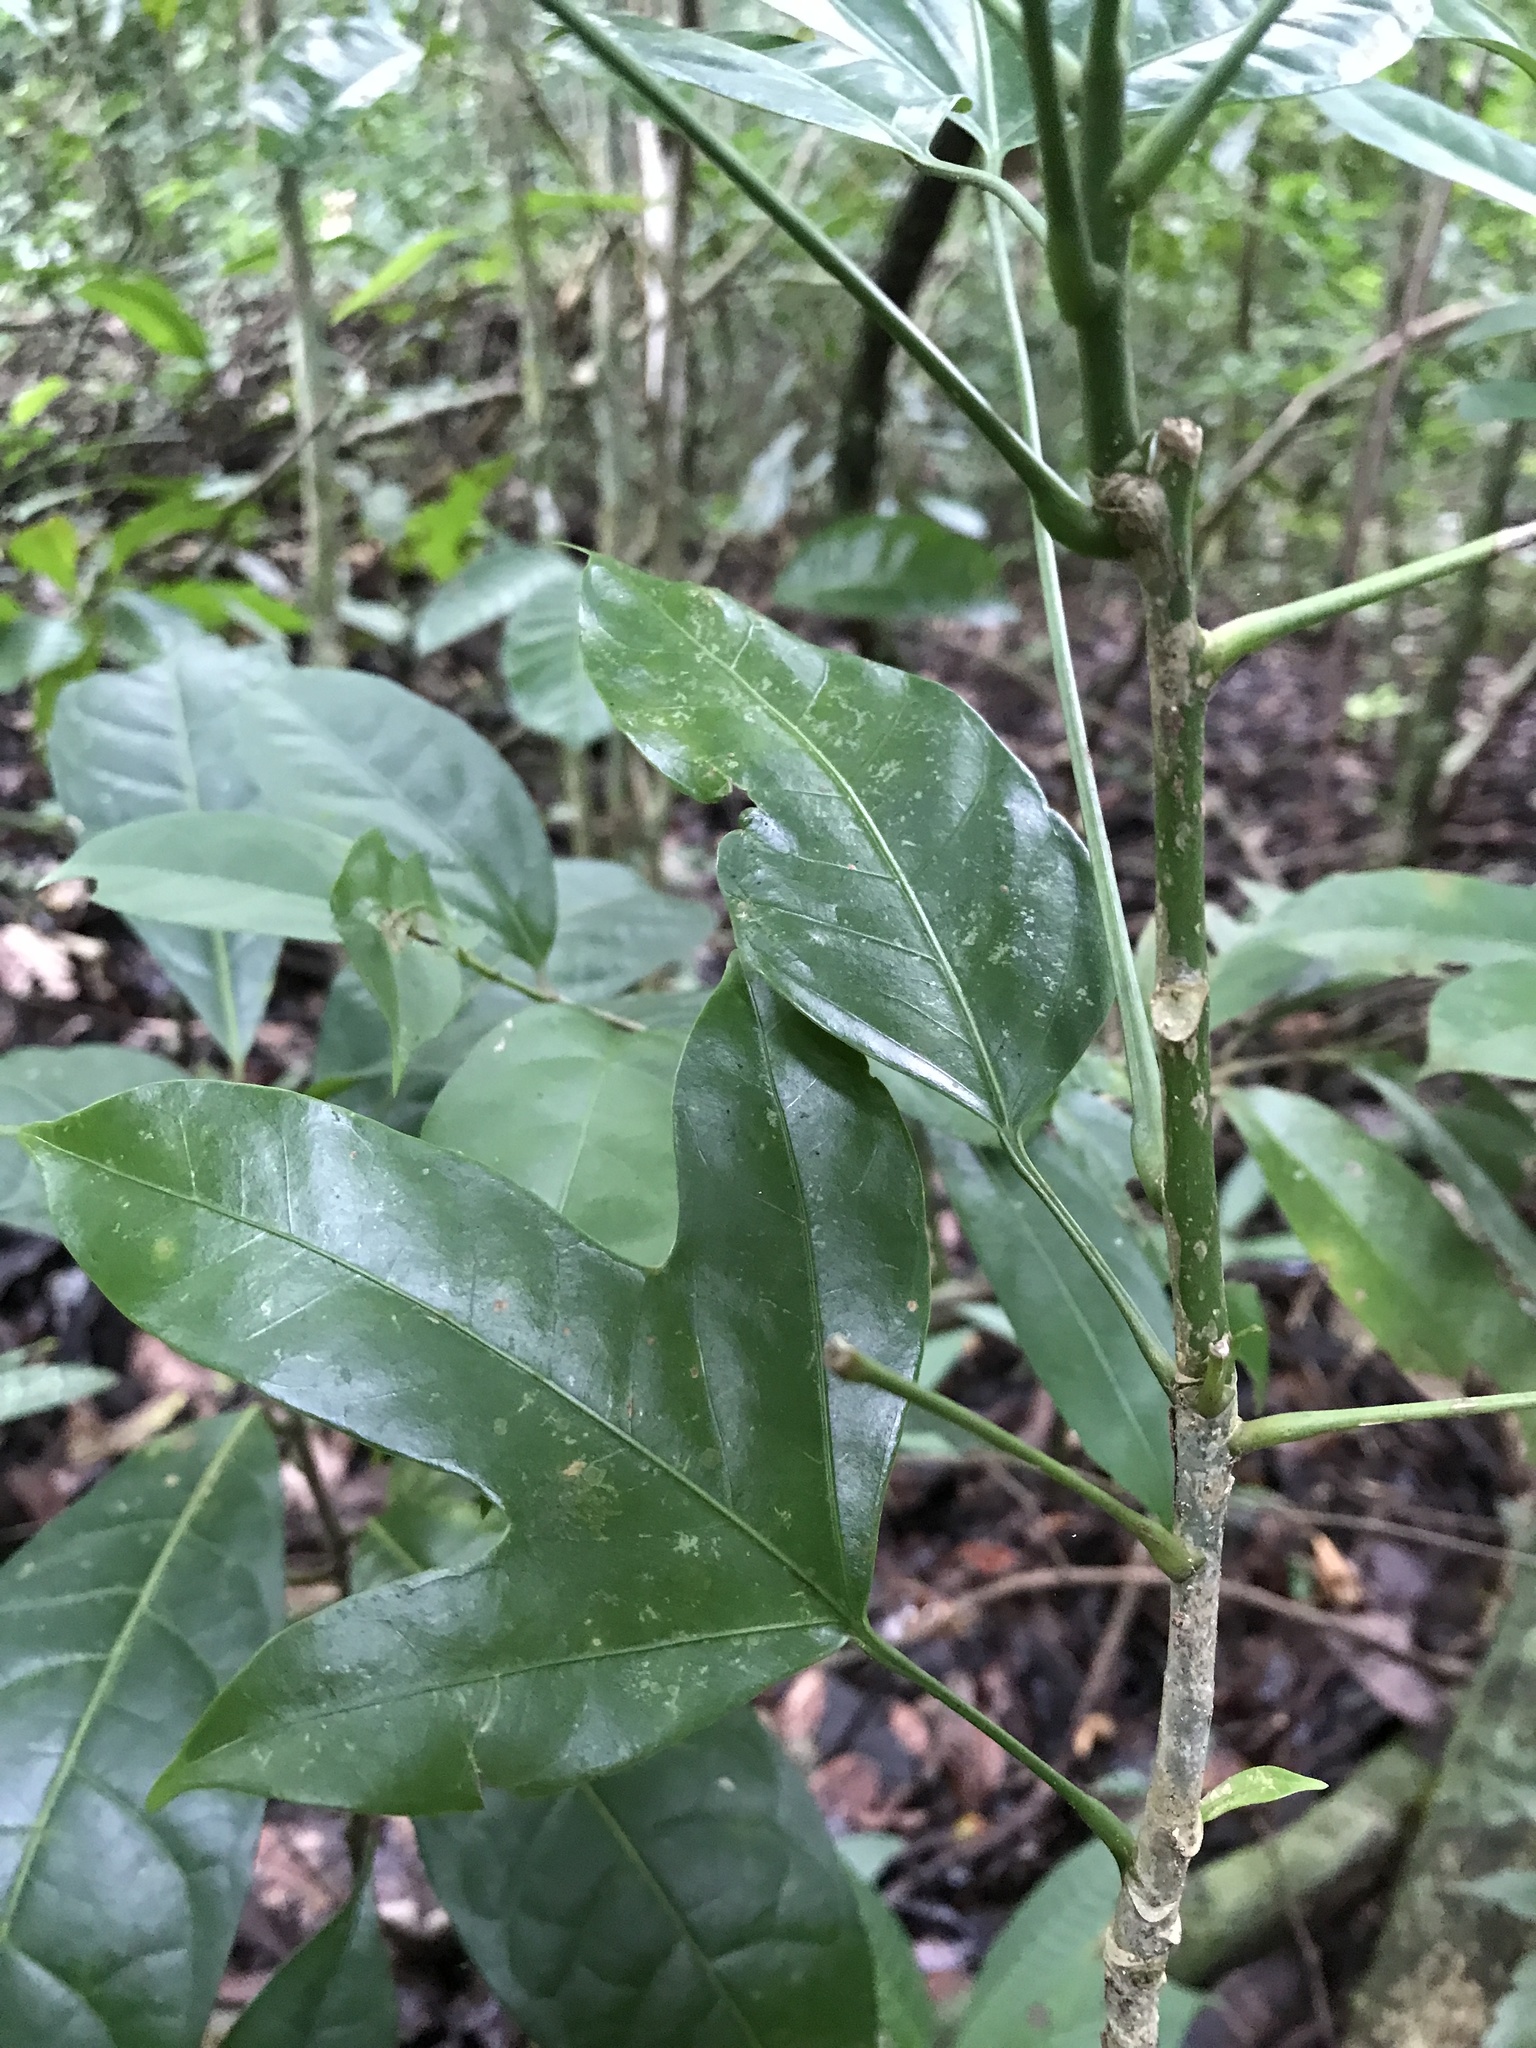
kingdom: Plantae
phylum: Tracheophyta
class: Magnoliopsida
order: Apiales
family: Araliaceae
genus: Dendropanax
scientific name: Dendropanax arboreus
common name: Potato-wood
